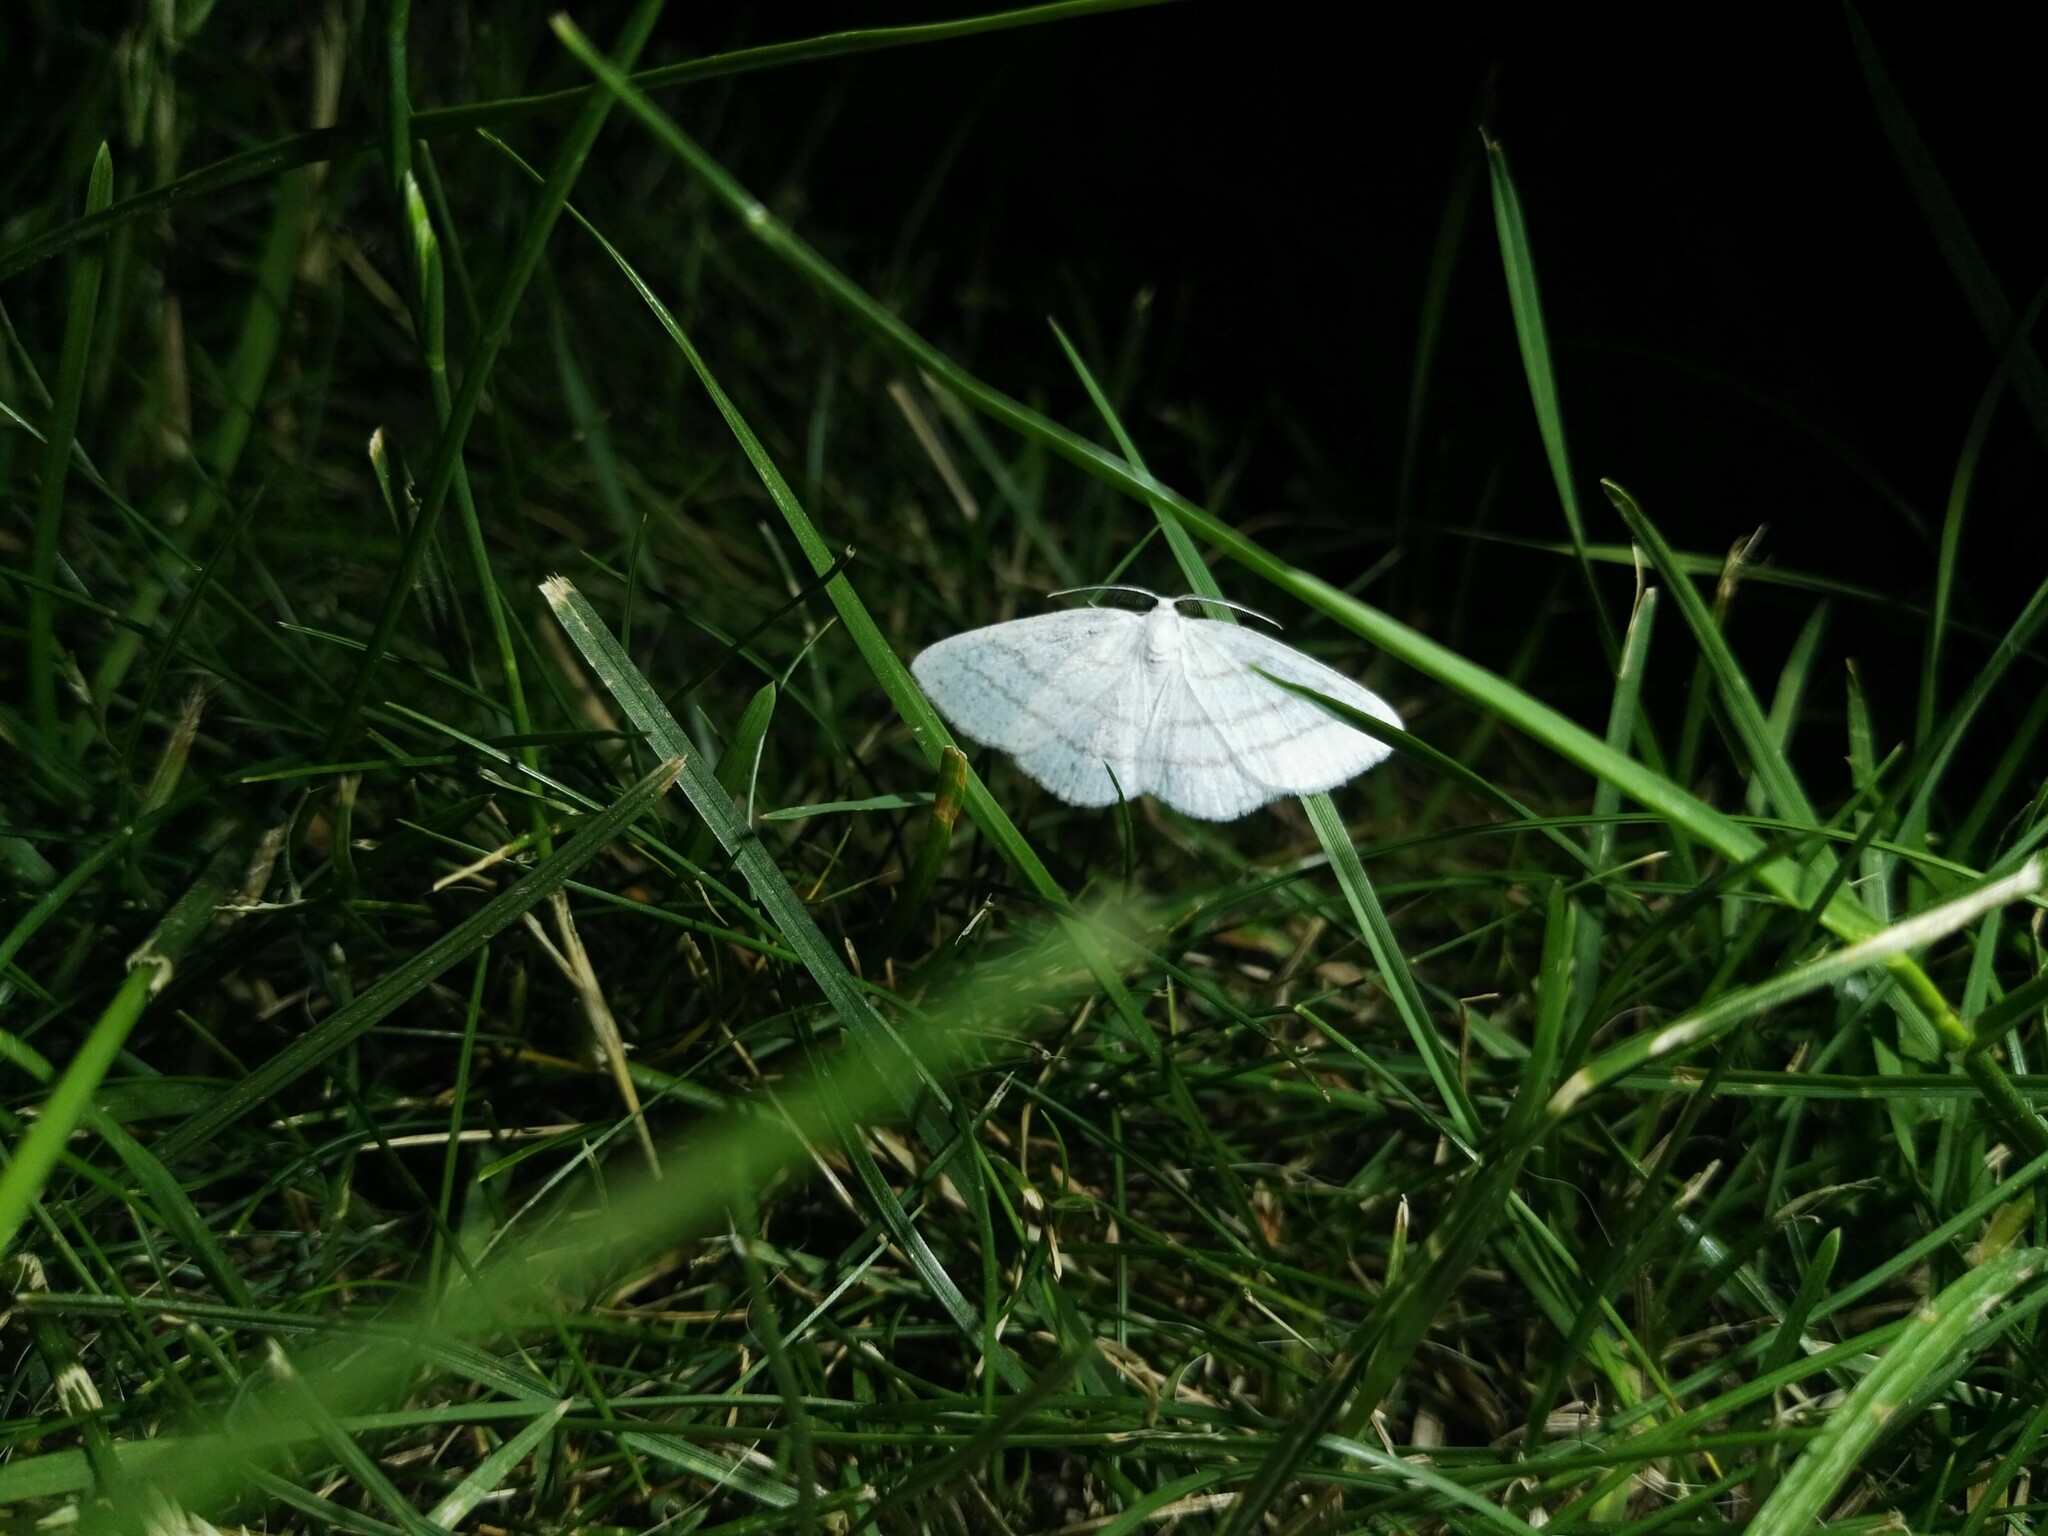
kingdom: Animalia
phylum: Arthropoda
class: Insecta
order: Lepidoptera
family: Geometridae
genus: Cabera
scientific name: Cabera pusaria
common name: Common white wave
